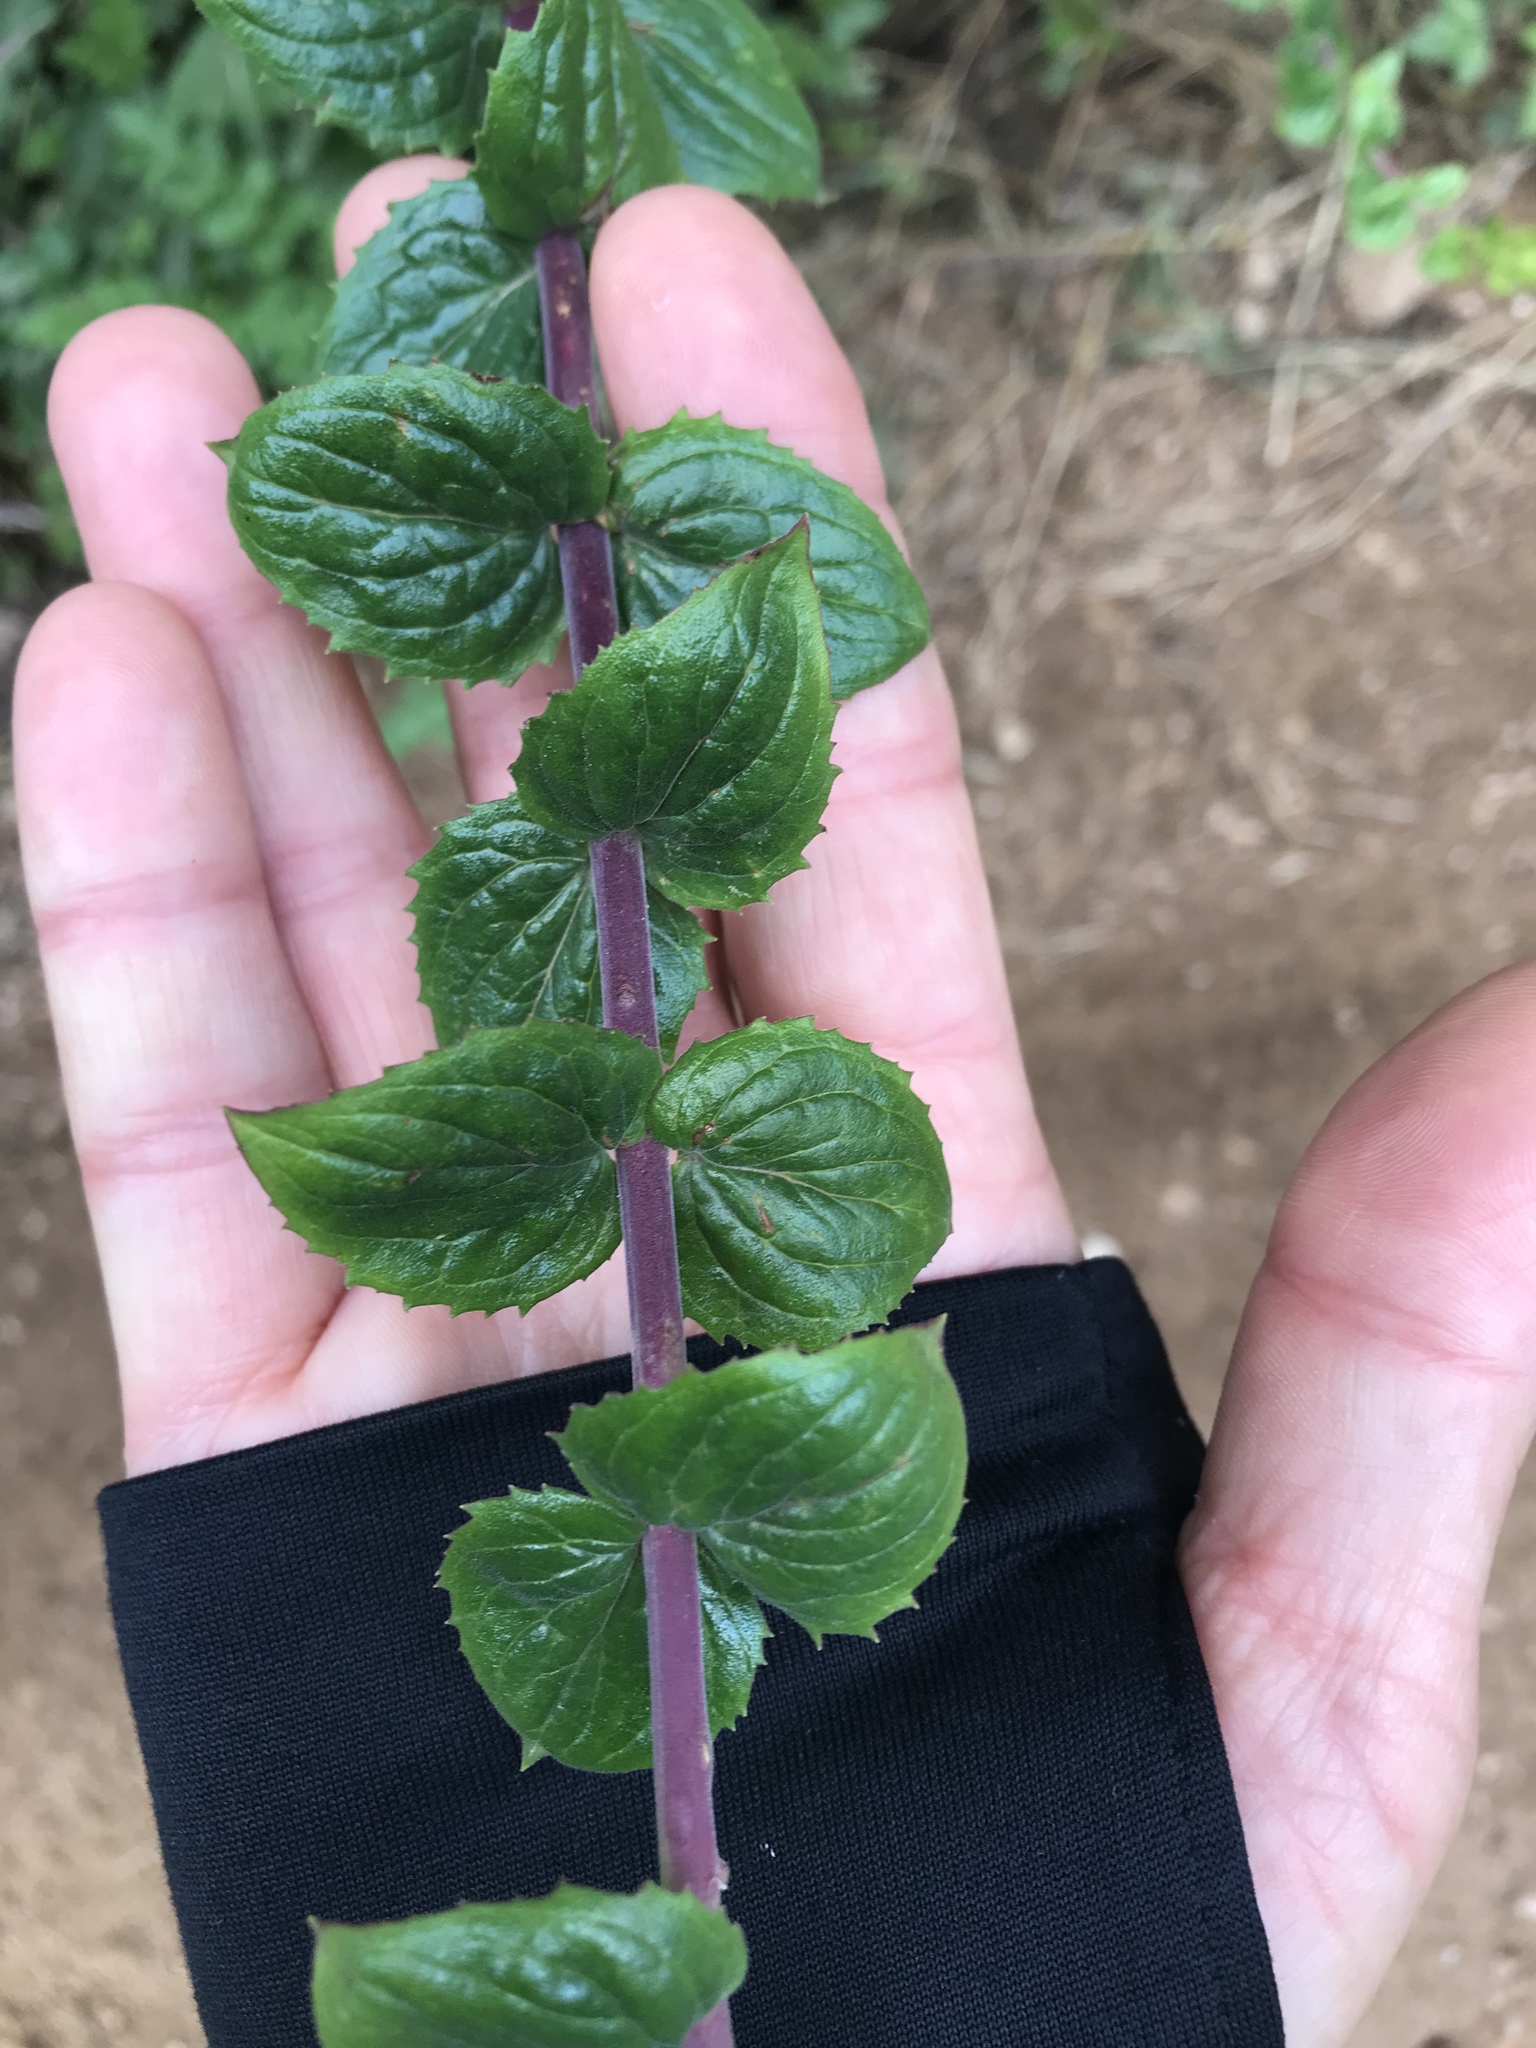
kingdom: Plantae
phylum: Tracheophyta
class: Magnoliopsida
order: Lamiales
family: Plantaginaceae
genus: Keckiella
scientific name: Keckiella cordifolia
